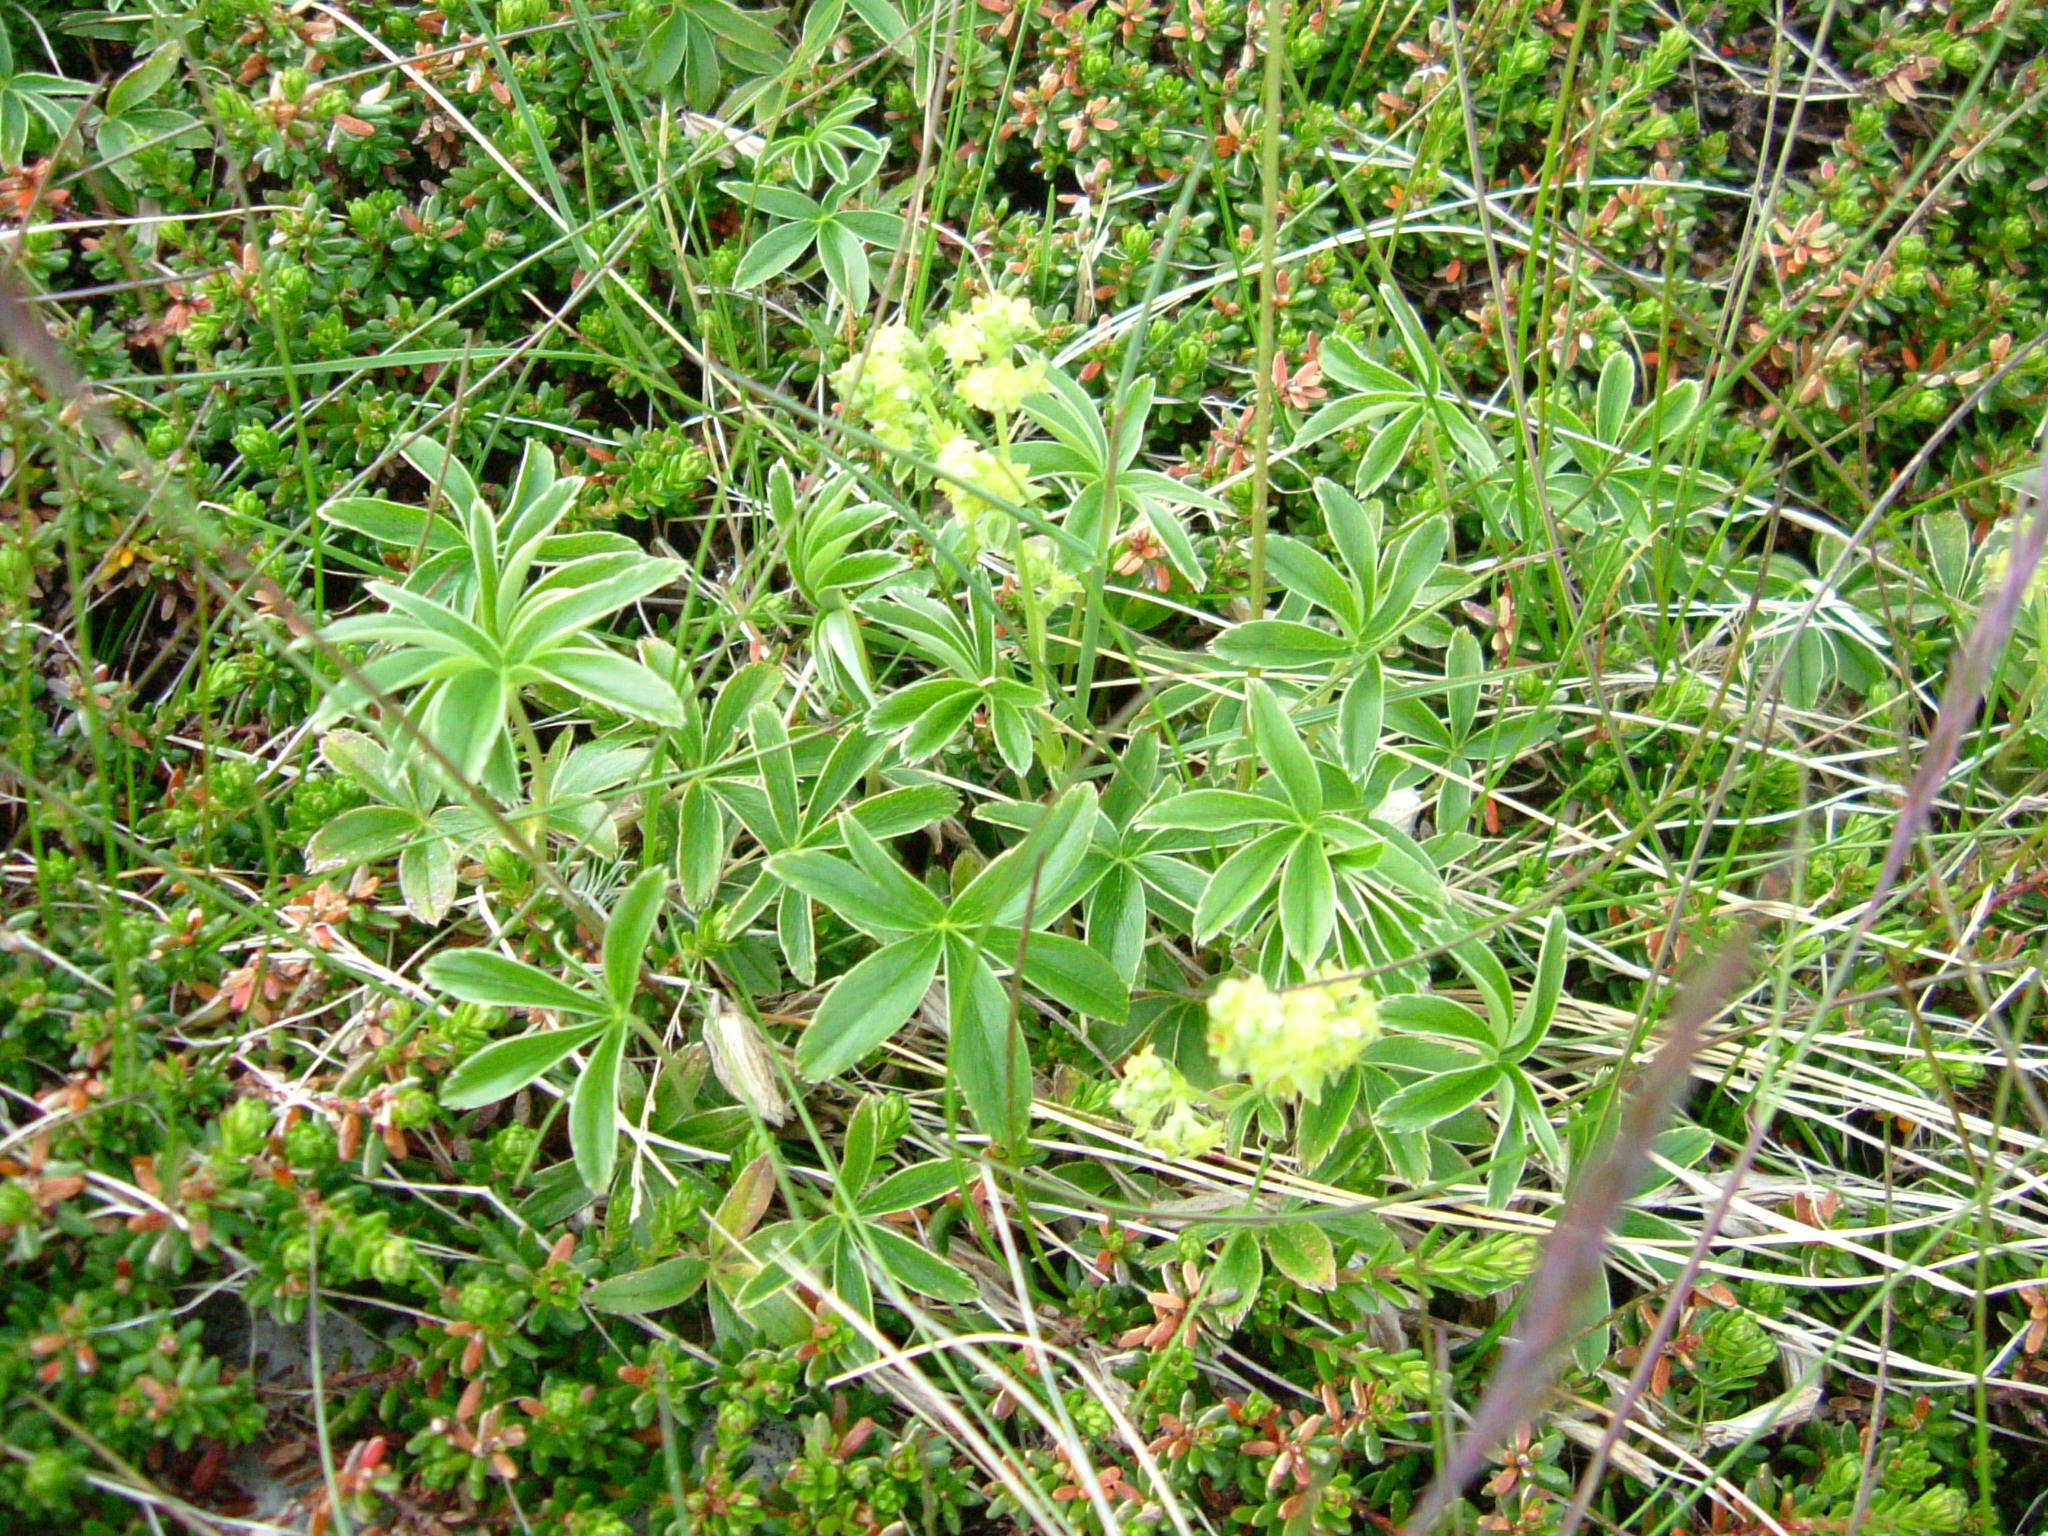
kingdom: Plantae
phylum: Tracheophyta
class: Magnoliopsida
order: Rosales
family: Rosaceae
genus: Alchemilla
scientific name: Alchemilla alpina
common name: Alpine lady's-mantle
